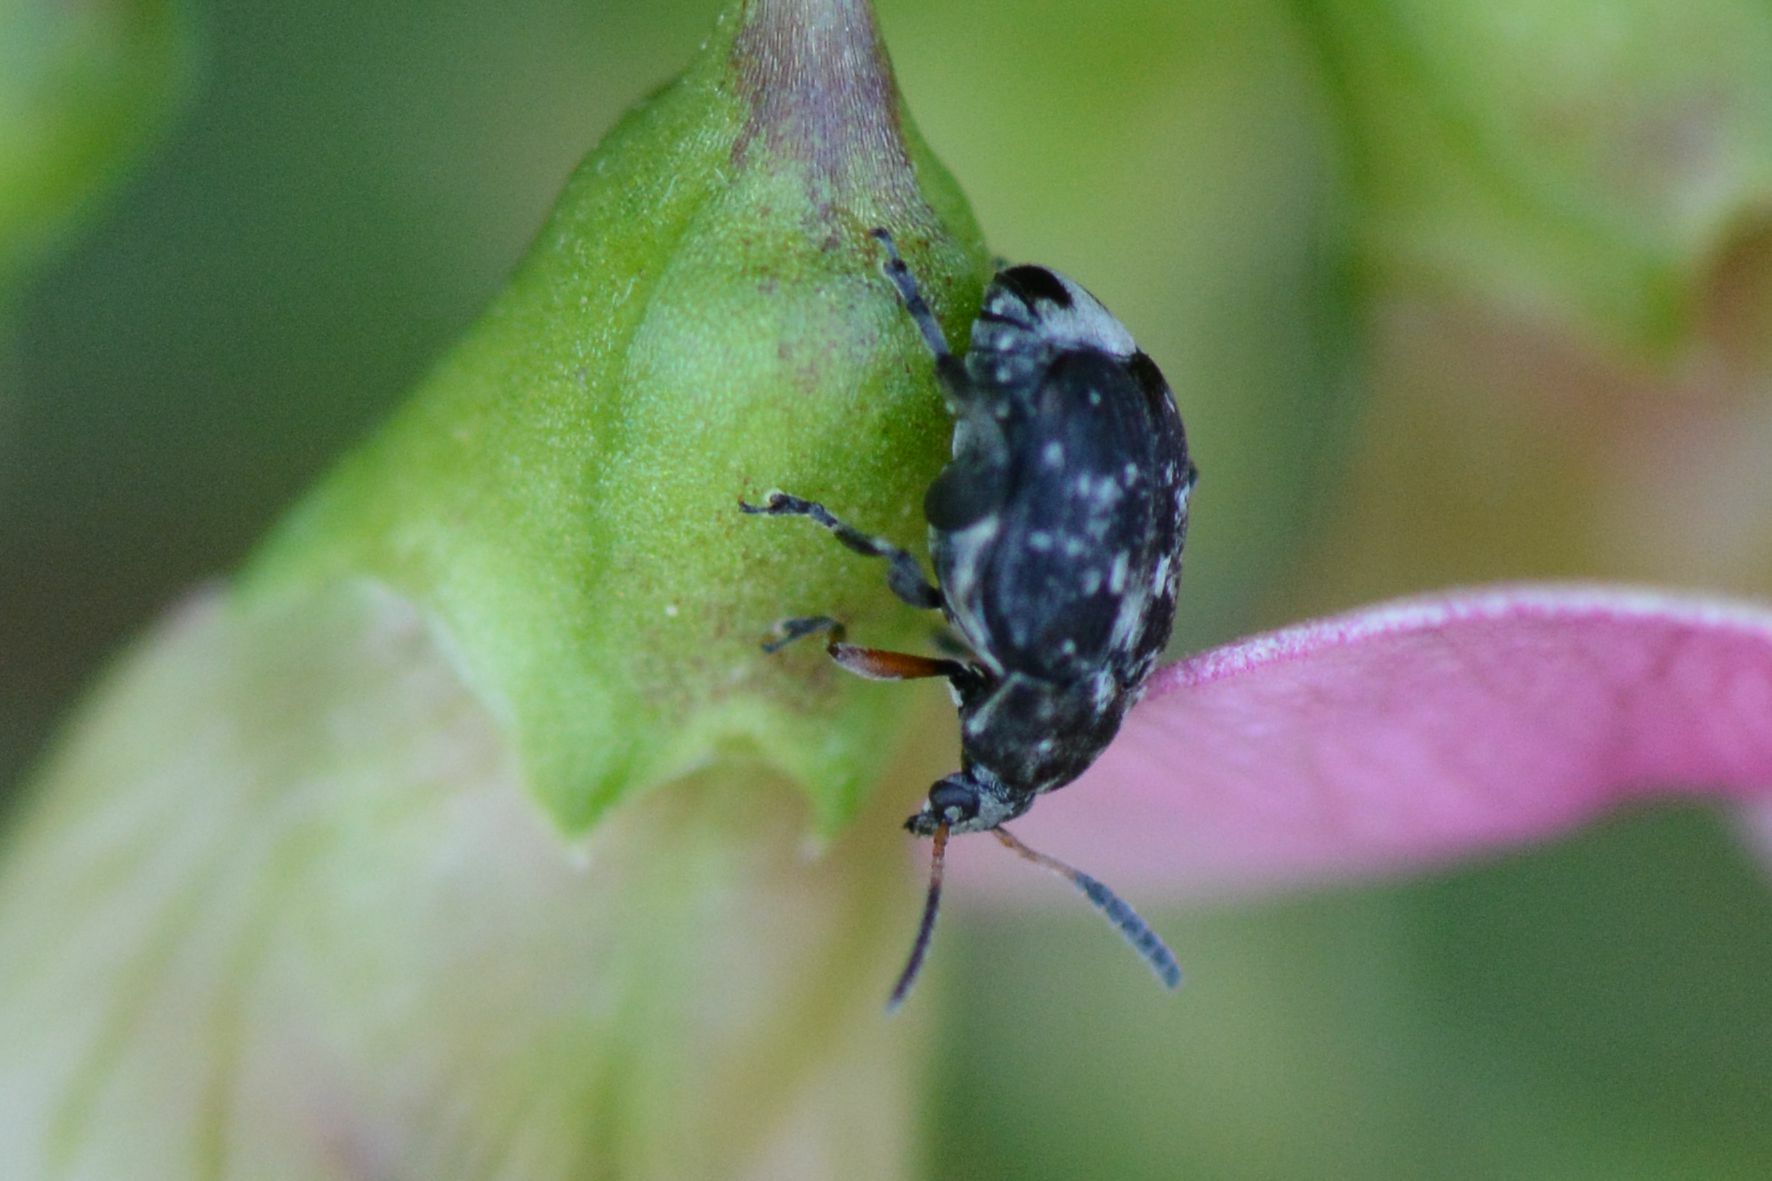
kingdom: Animalia
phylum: Arthropoda
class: Insecta
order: Coleoptera
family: Chrysomelidae
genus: Bruchus
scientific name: Bruchus affinis
